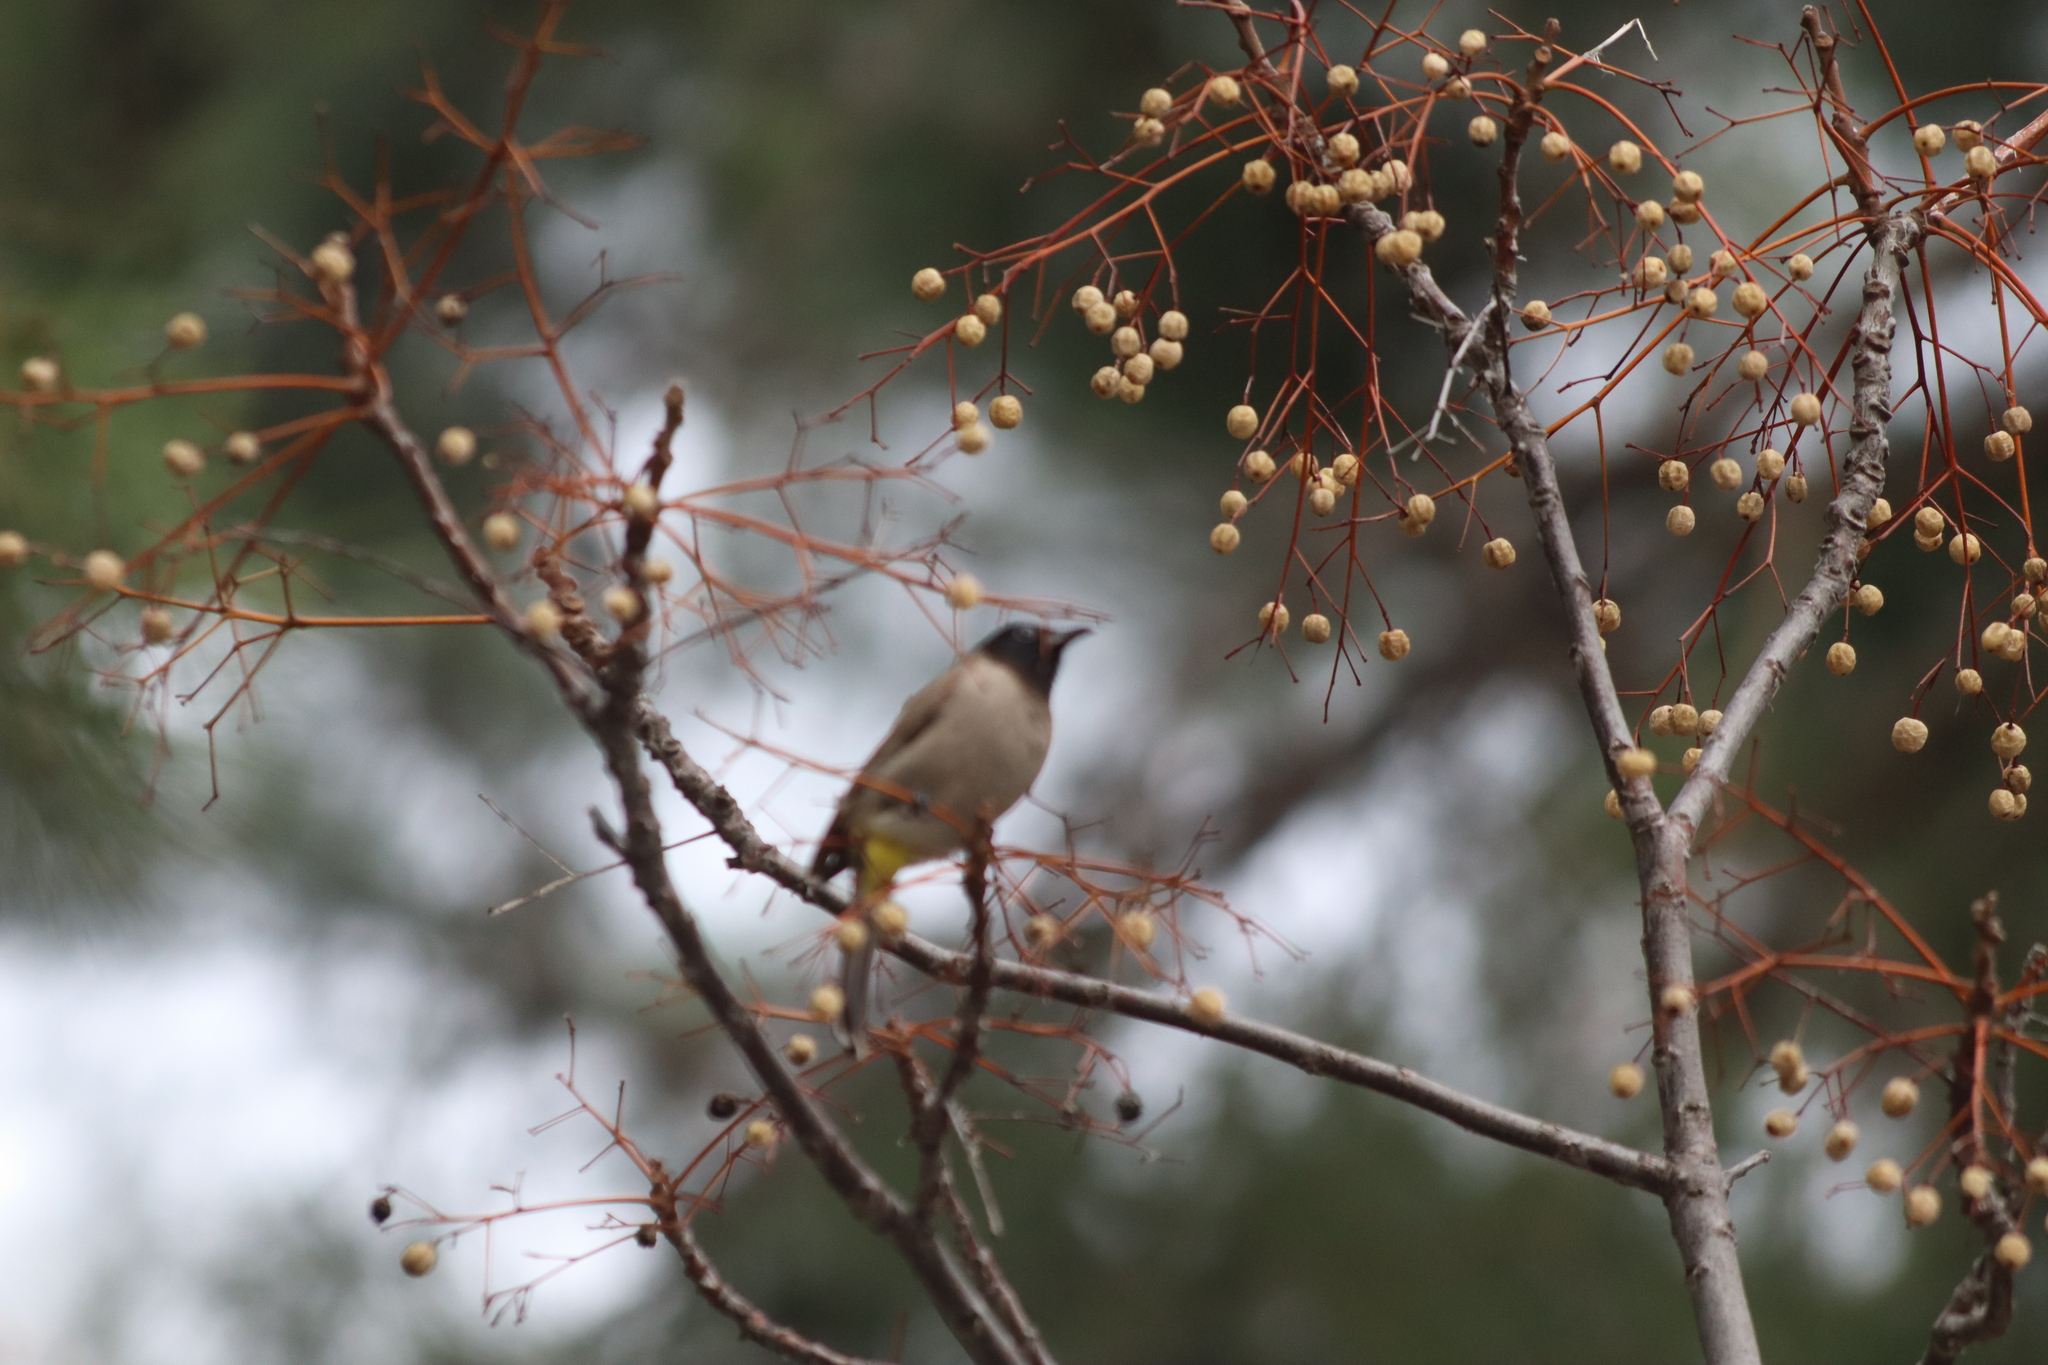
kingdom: Plantae
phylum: Tracheophyta
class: Magnoliopsida
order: Sapindales
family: Meliaceae
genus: Melia
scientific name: Melia azedarach
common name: Chinaberrytree
